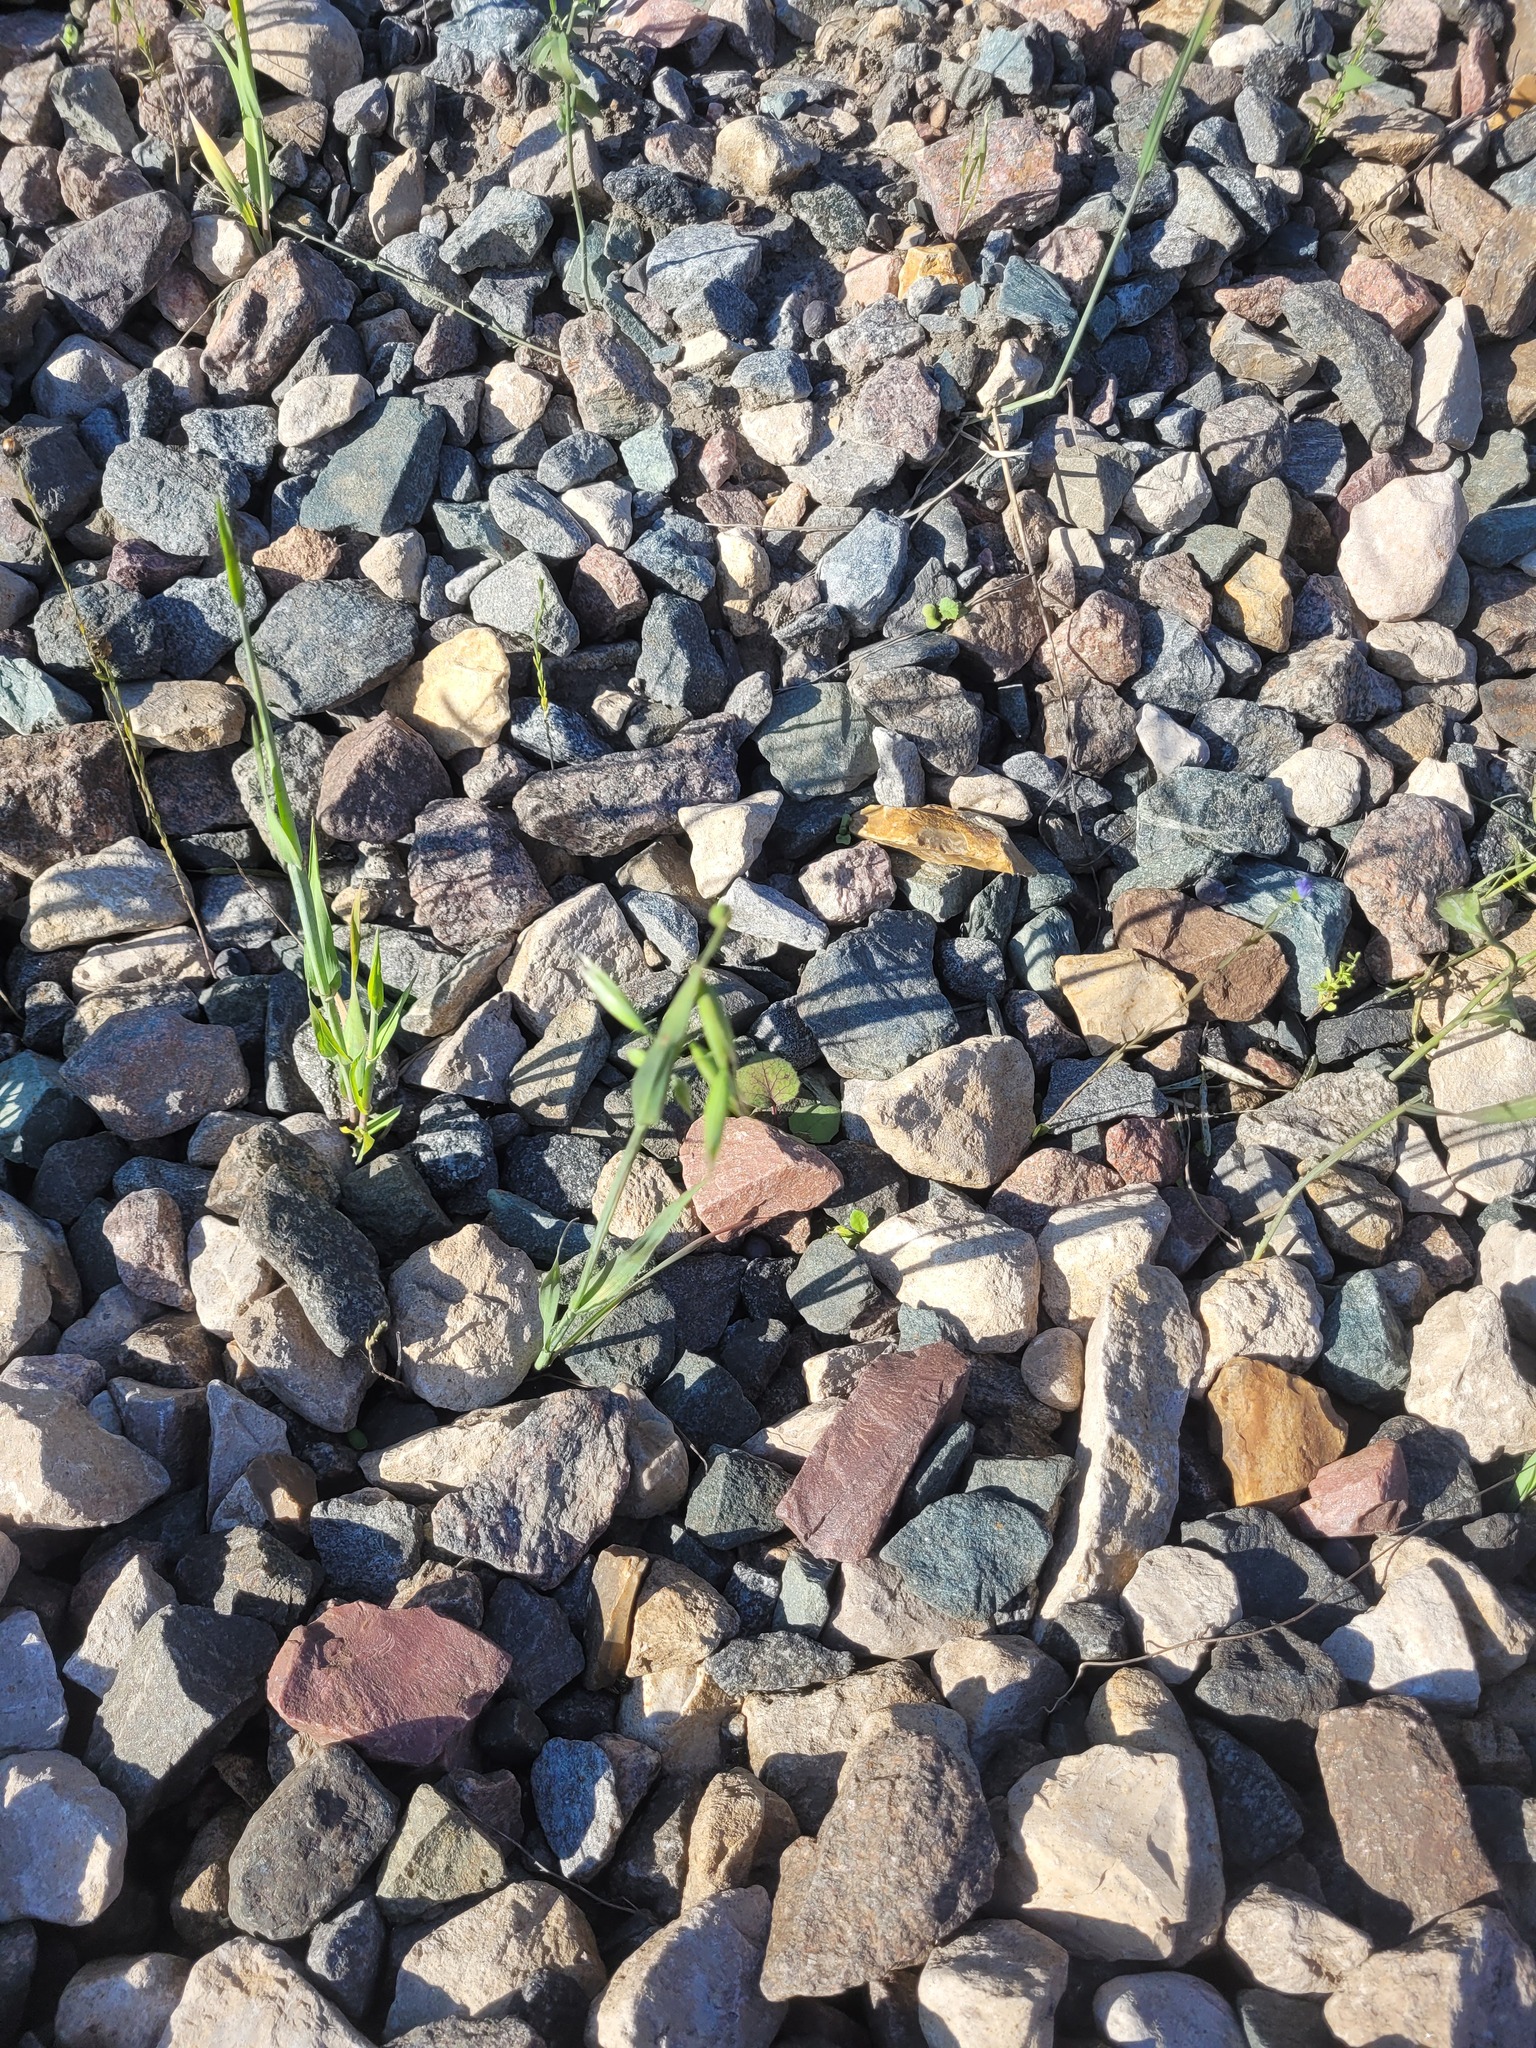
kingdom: Plantae
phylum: Tracheophyta
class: Liliopsida
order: Poales
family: Poaceae
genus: Avena
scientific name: Avena fatua
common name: Wild oat
